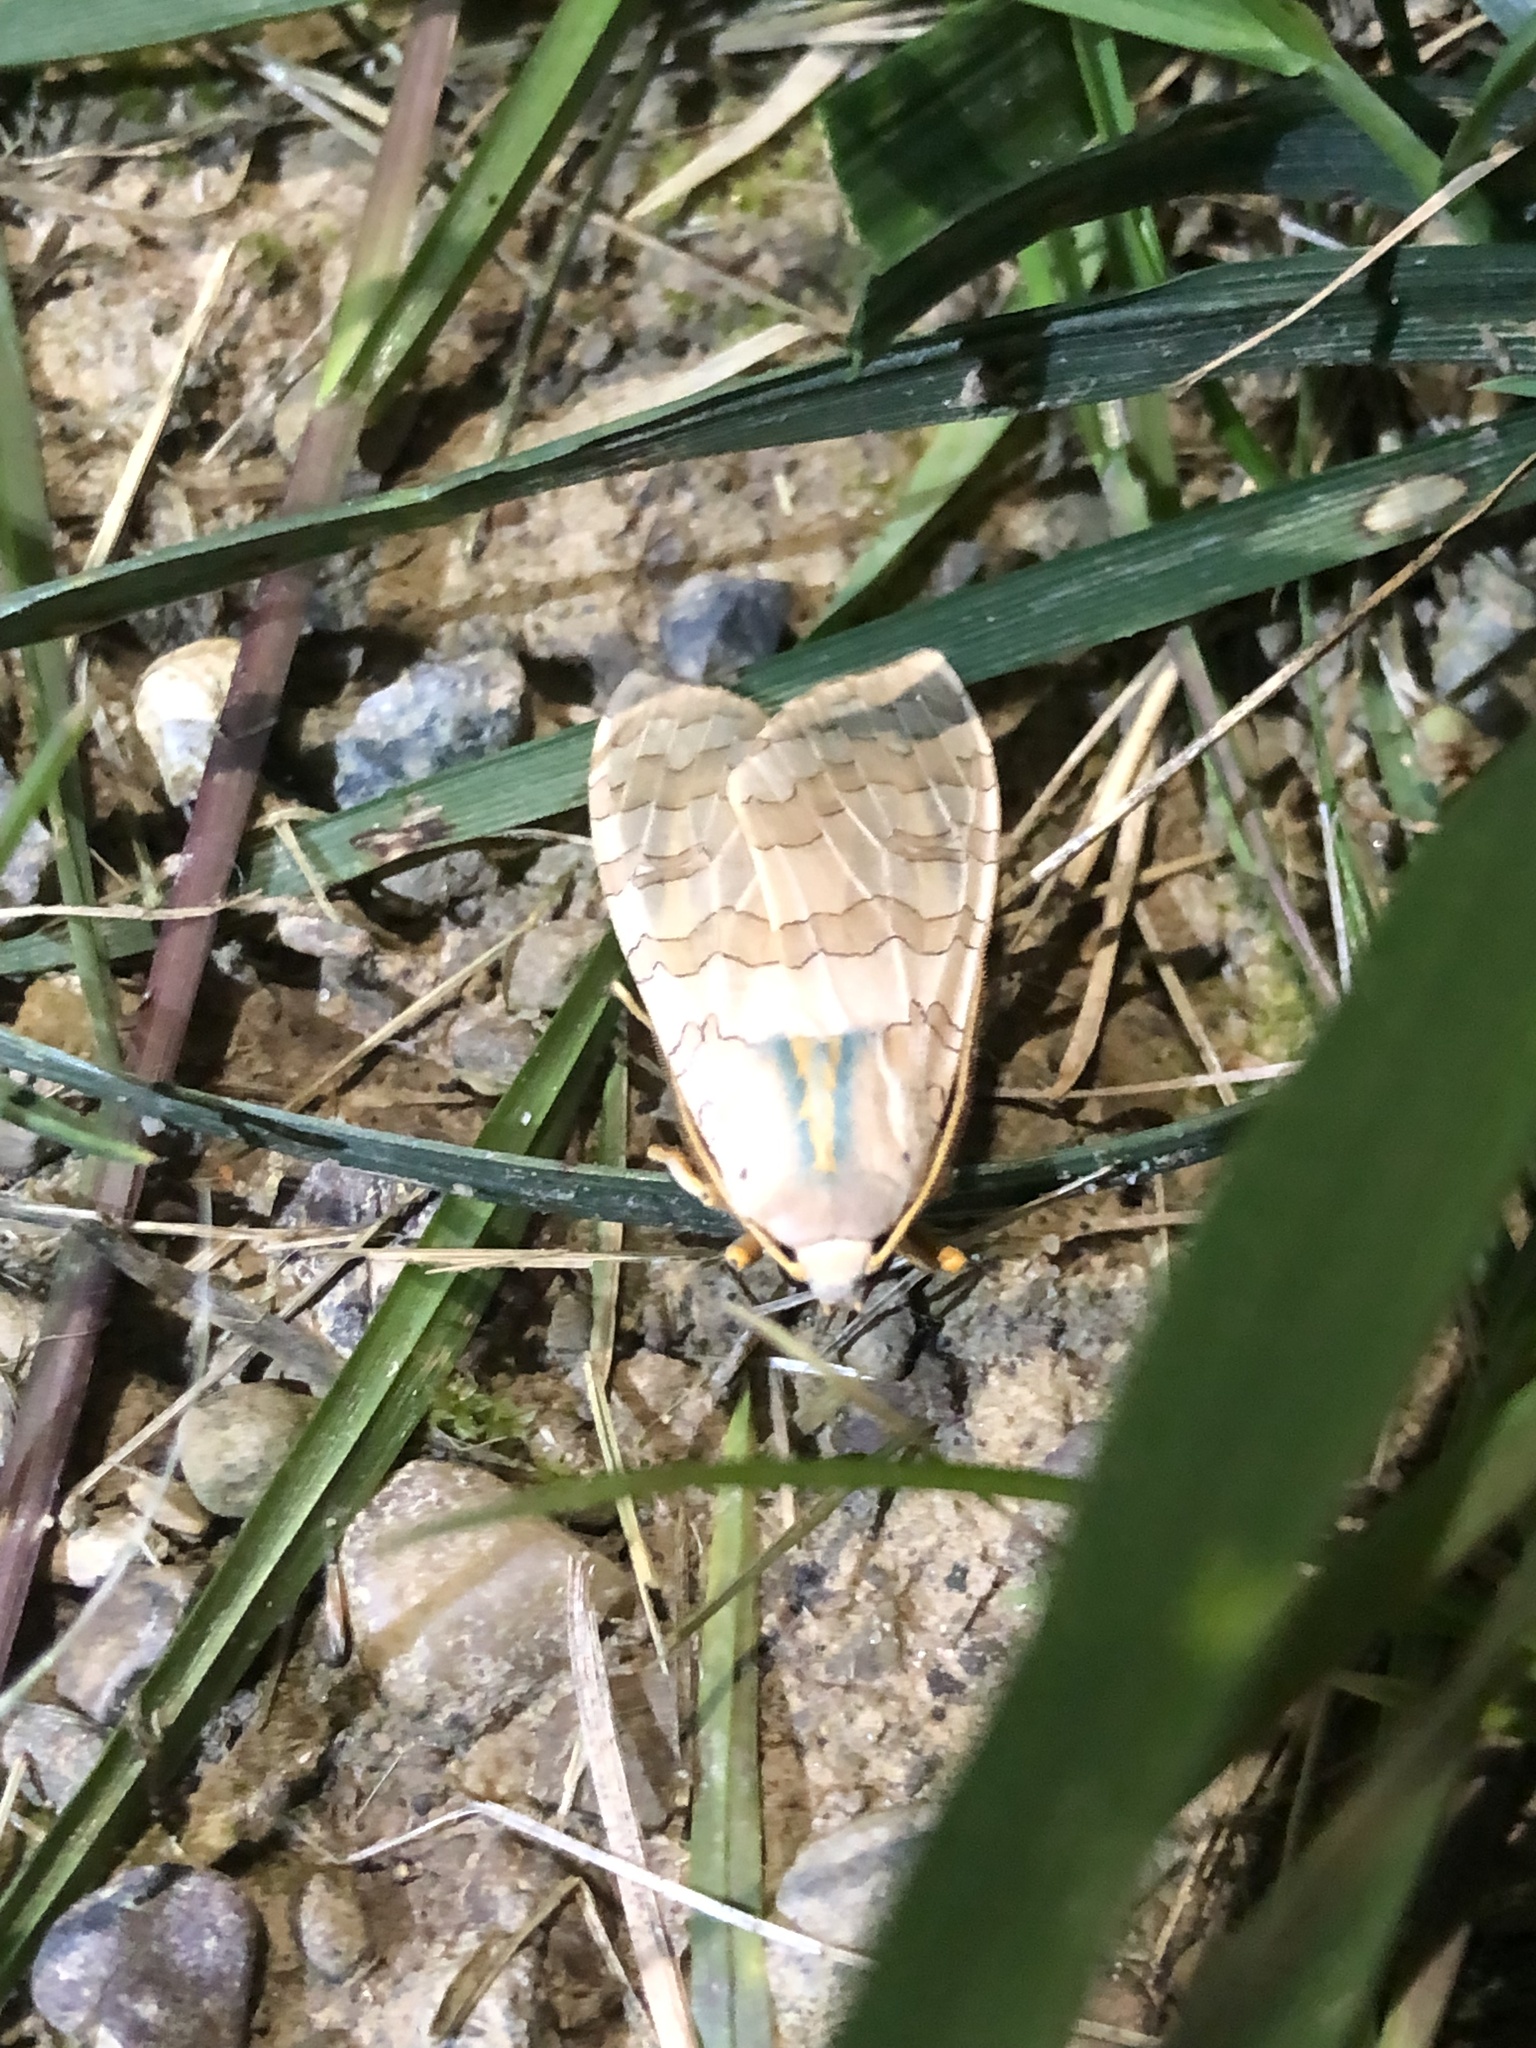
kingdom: Animalia
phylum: Arthropoda
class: Insecta
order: Lepidoptera
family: Erebidae
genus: Halysidota
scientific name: Halysidota
